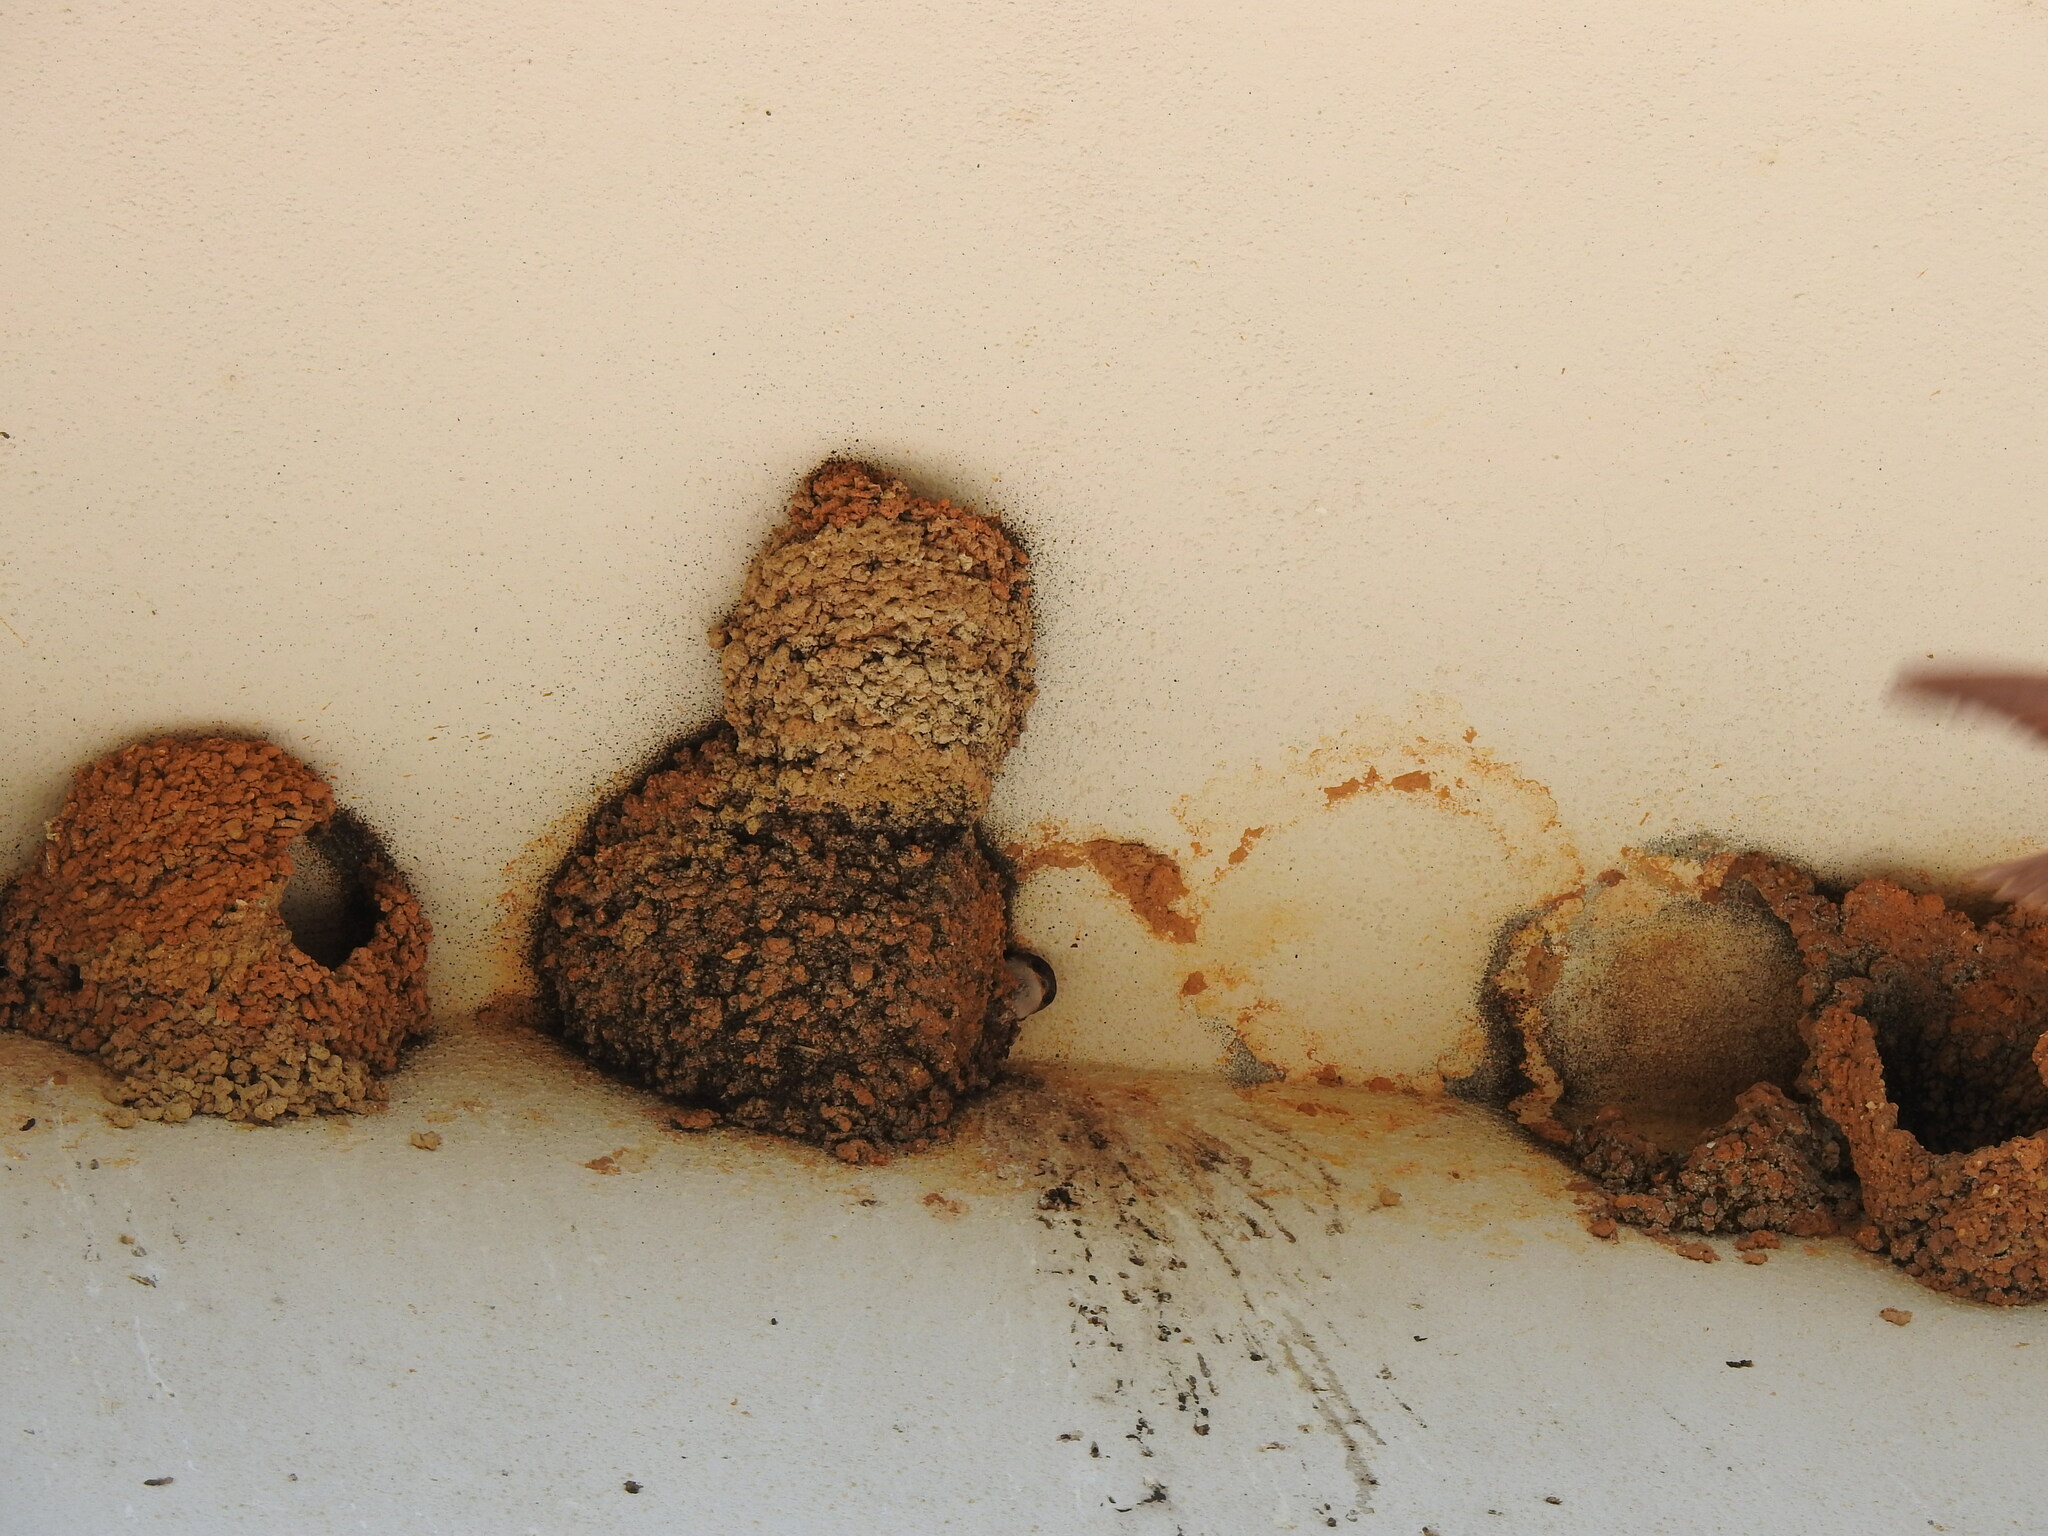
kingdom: Animalia
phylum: Chordata
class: Aves
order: Passeriformes
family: Hirundinidae
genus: Delichon
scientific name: Delichon urbicum
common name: Common house martin
